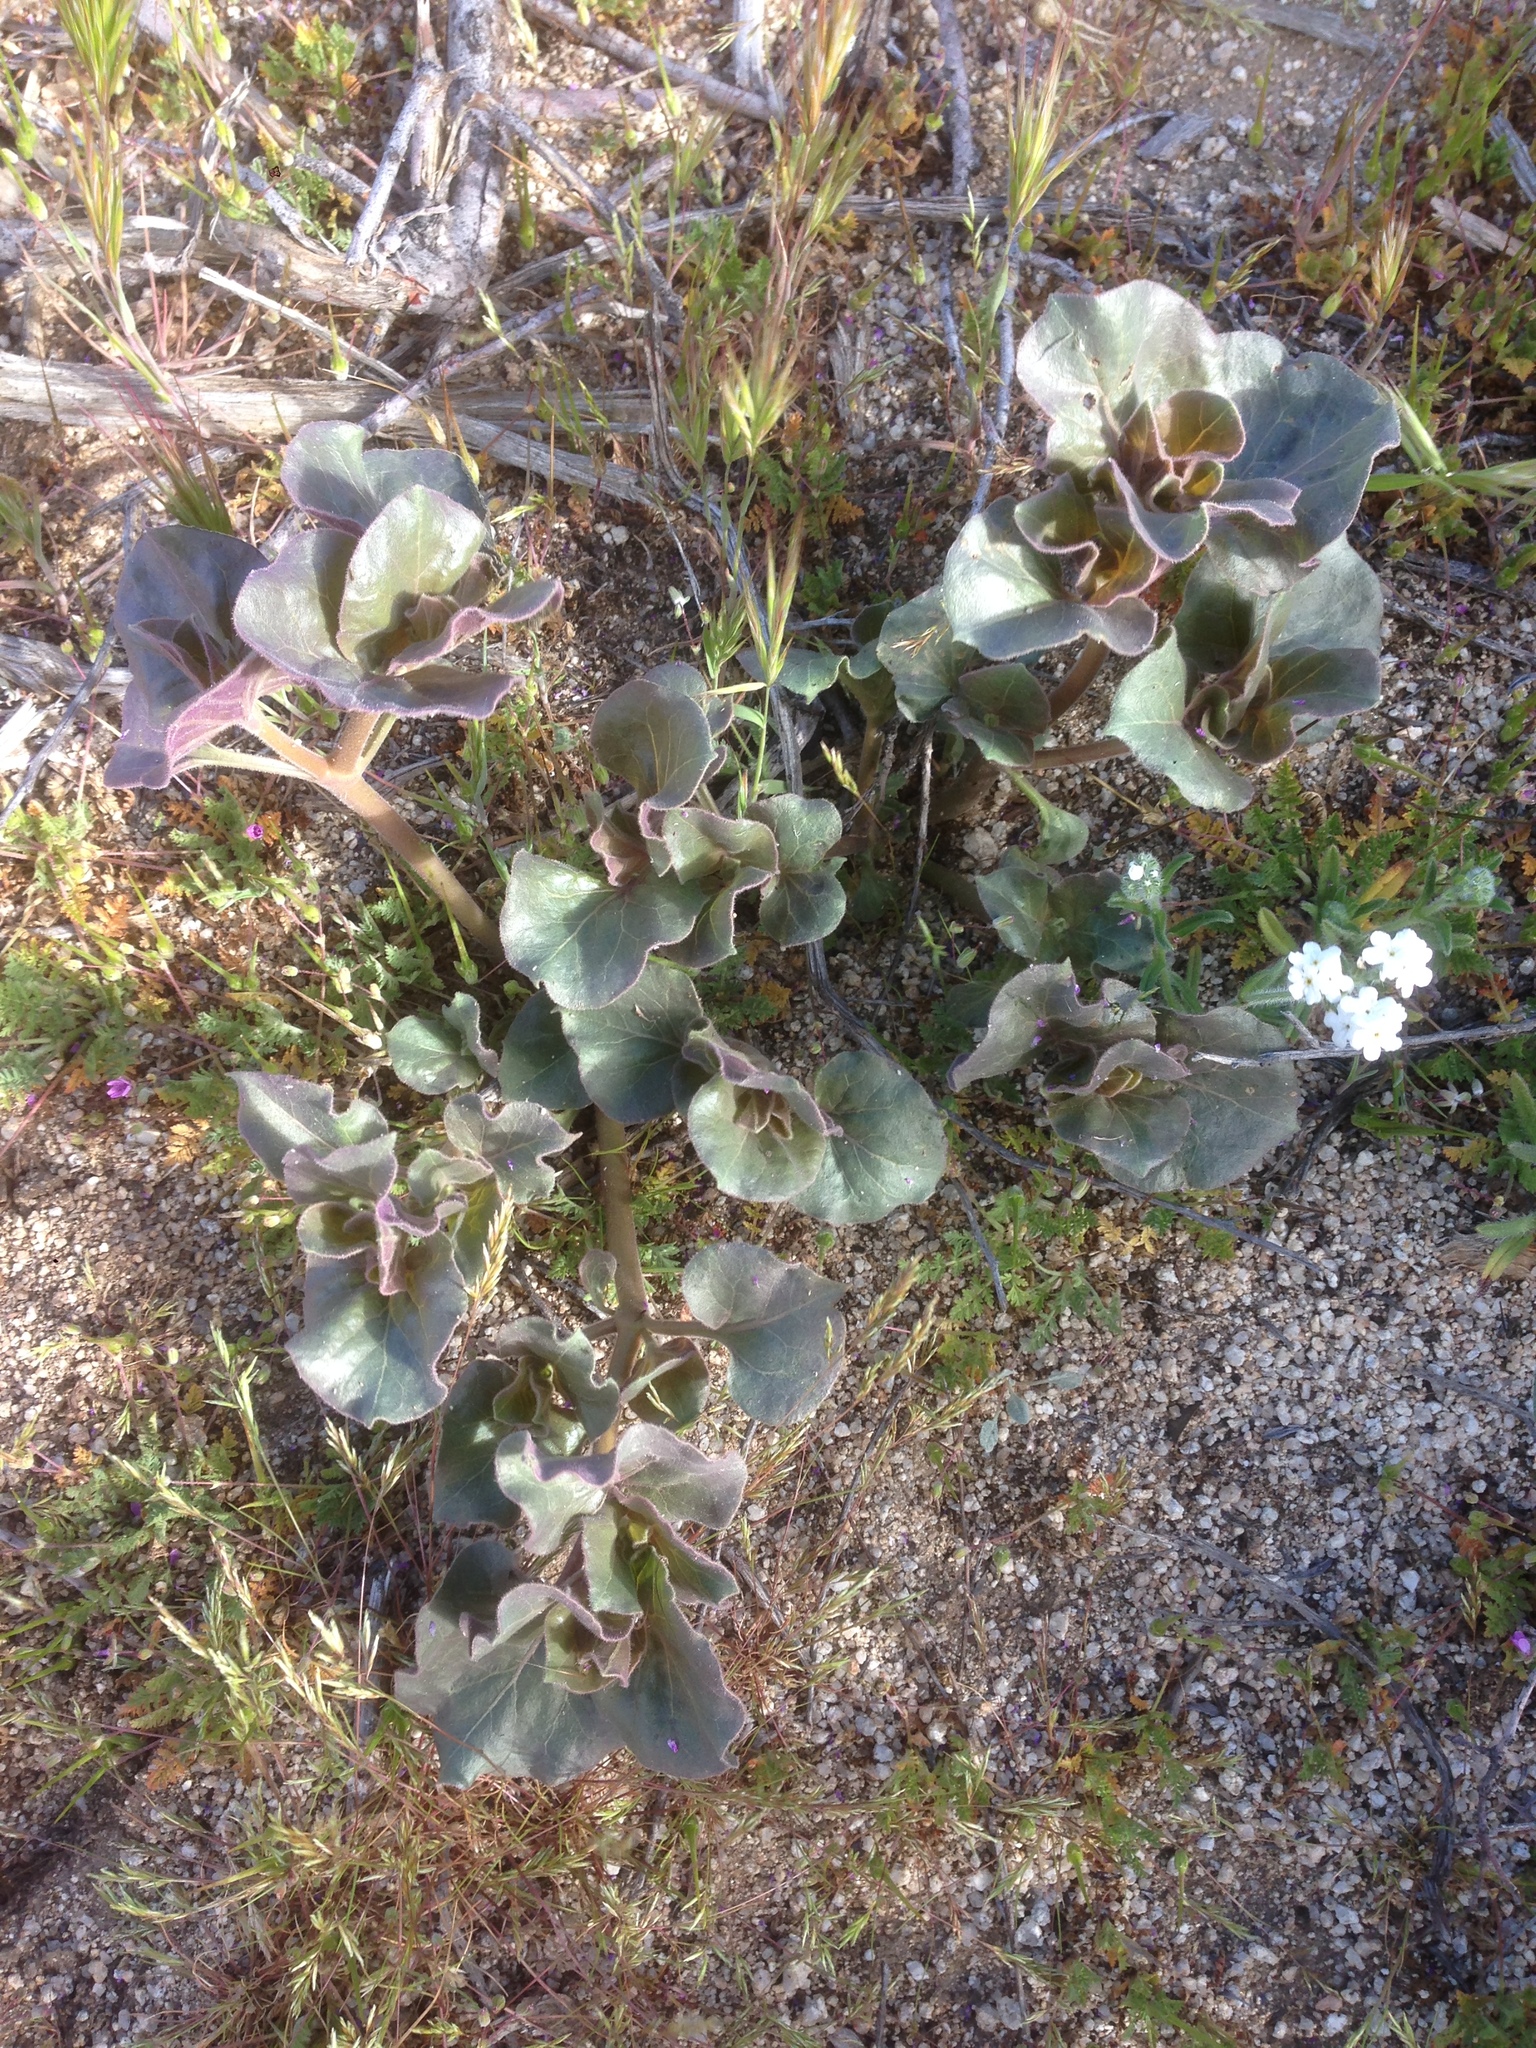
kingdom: Plantae
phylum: Tracheophyta
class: Magnoliopsida
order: Caryophyllales
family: Nyctaginaceae
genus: Mirabilis
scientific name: Mirabilis multiflora
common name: Froebel's four-o'clock
